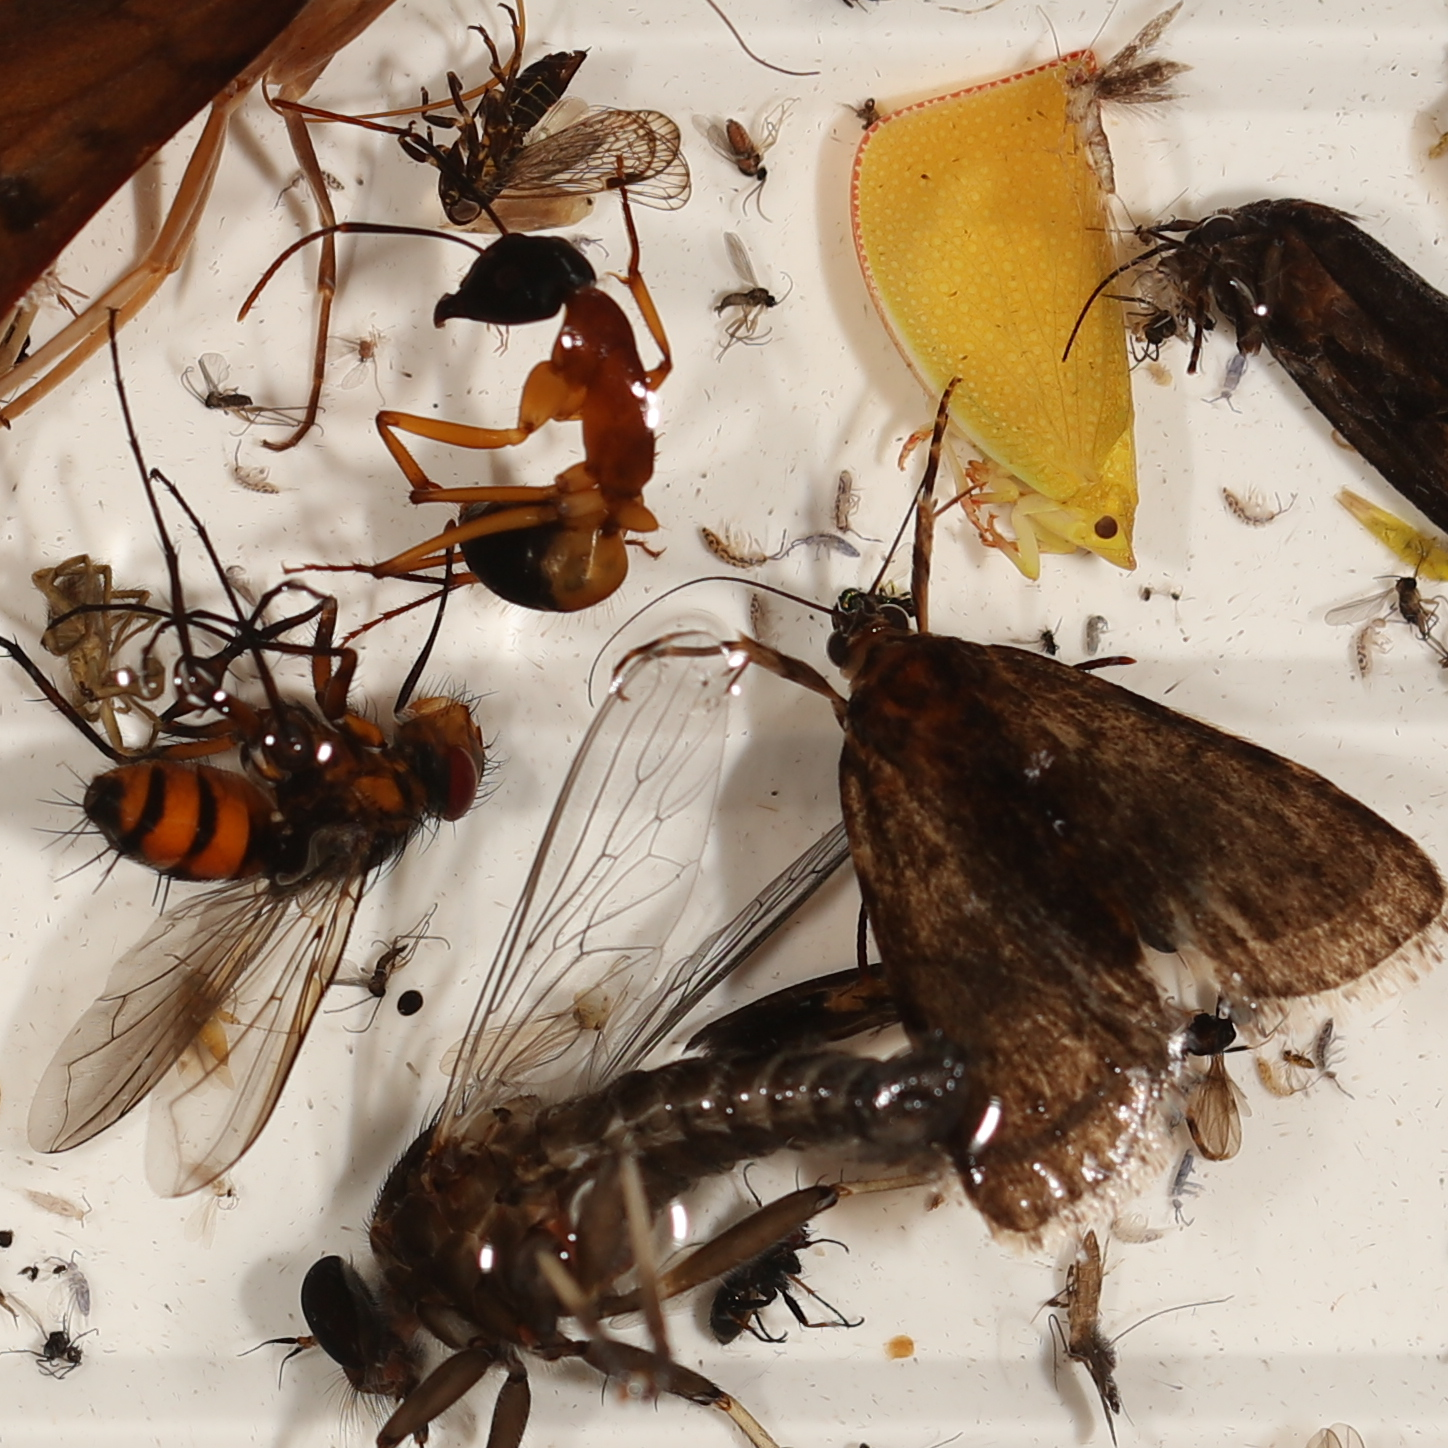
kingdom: Animalia
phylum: Arthropoda
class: Insecta
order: Hymenoptera
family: Formicidae
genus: Camponotus
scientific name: Camponotus consobrinus
